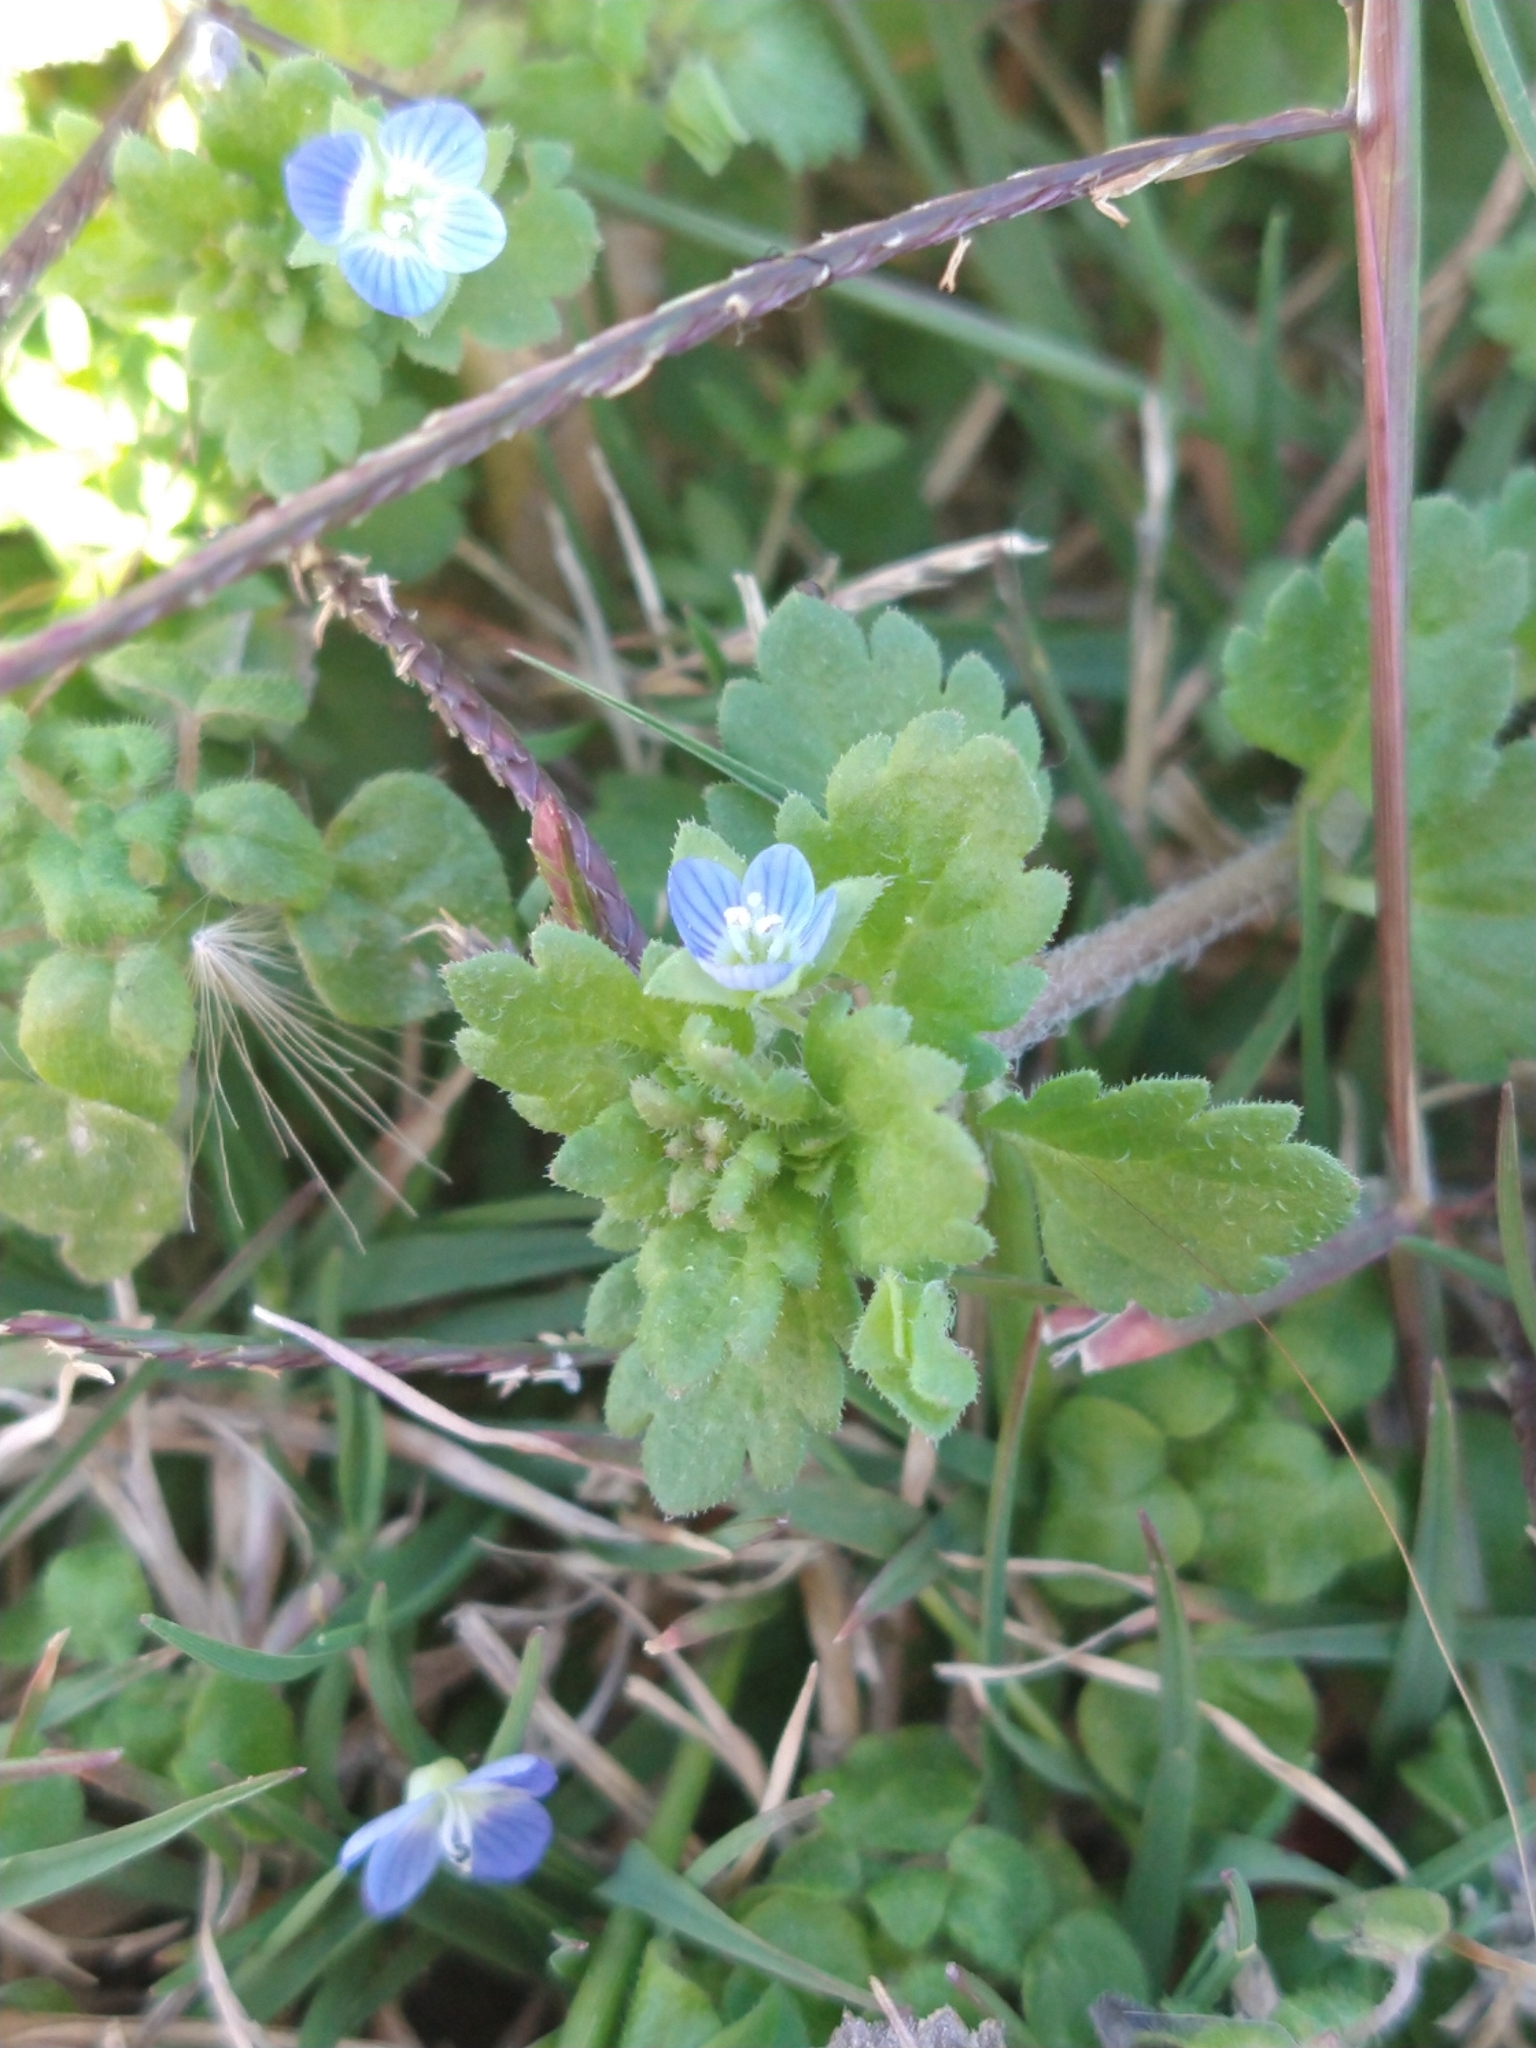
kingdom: Plantae
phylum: Tracheophyta
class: Magnoliopsida
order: Lamiales
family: Plantaginaceae
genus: Veronica
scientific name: Veronica persica
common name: Common field-speedwell
